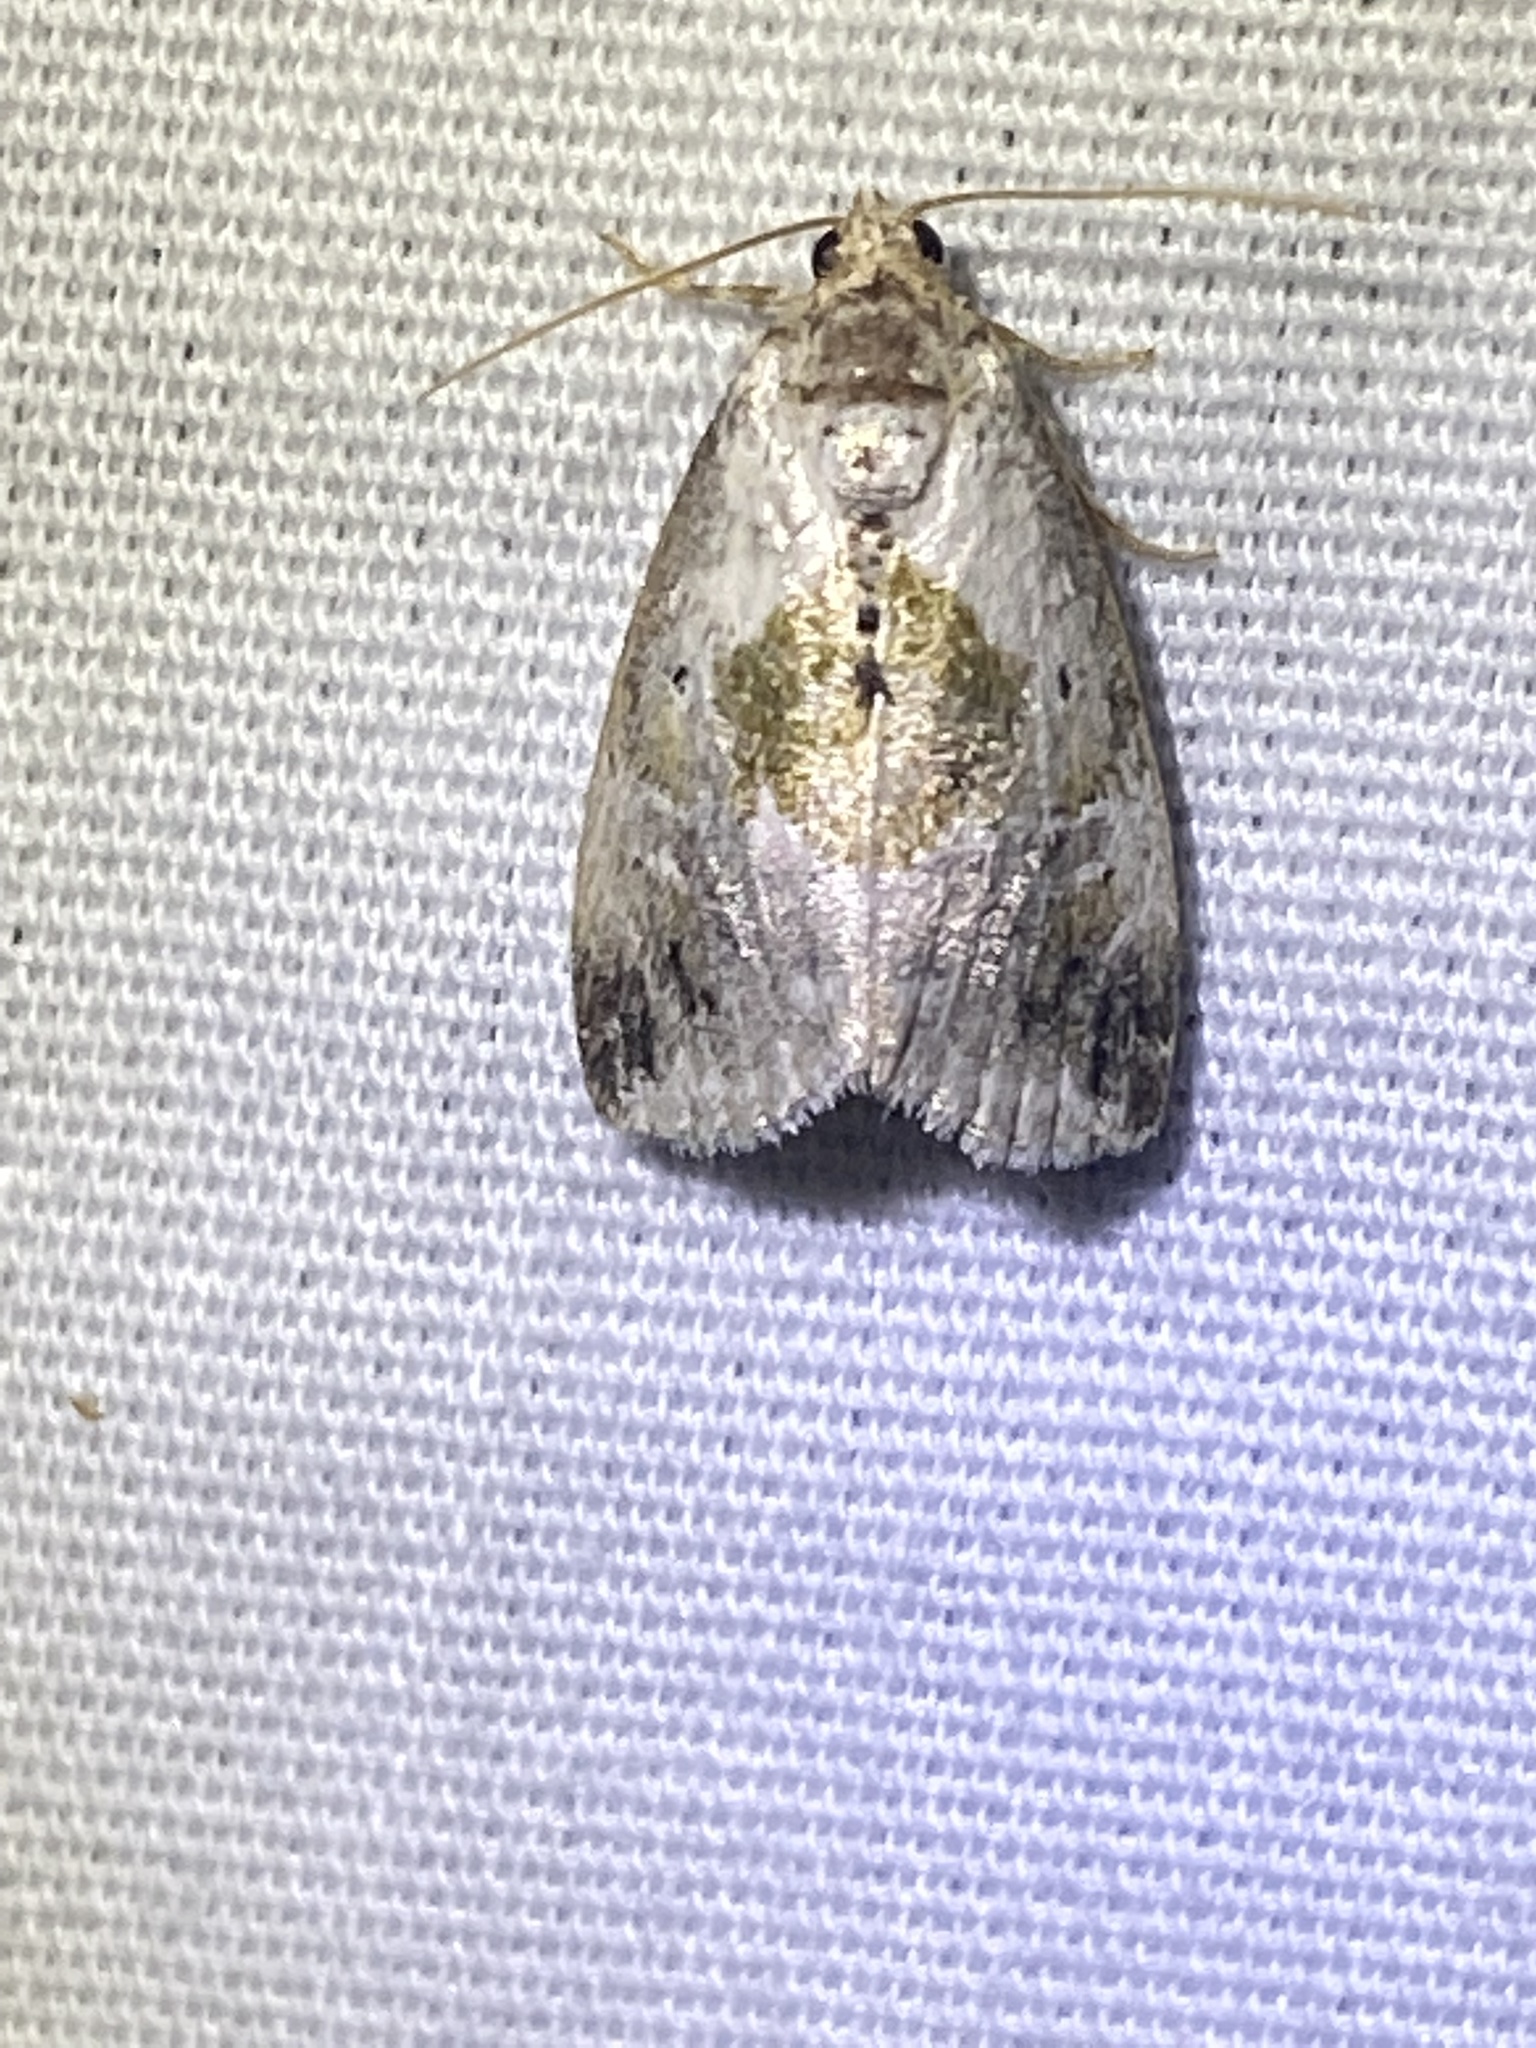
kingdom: Animalia
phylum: Arthropoda
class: Insecta
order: Lepidoptera
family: Noctuidae
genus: Maliattha
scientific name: Maliattha synochitis
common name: Black-dotted glyph
